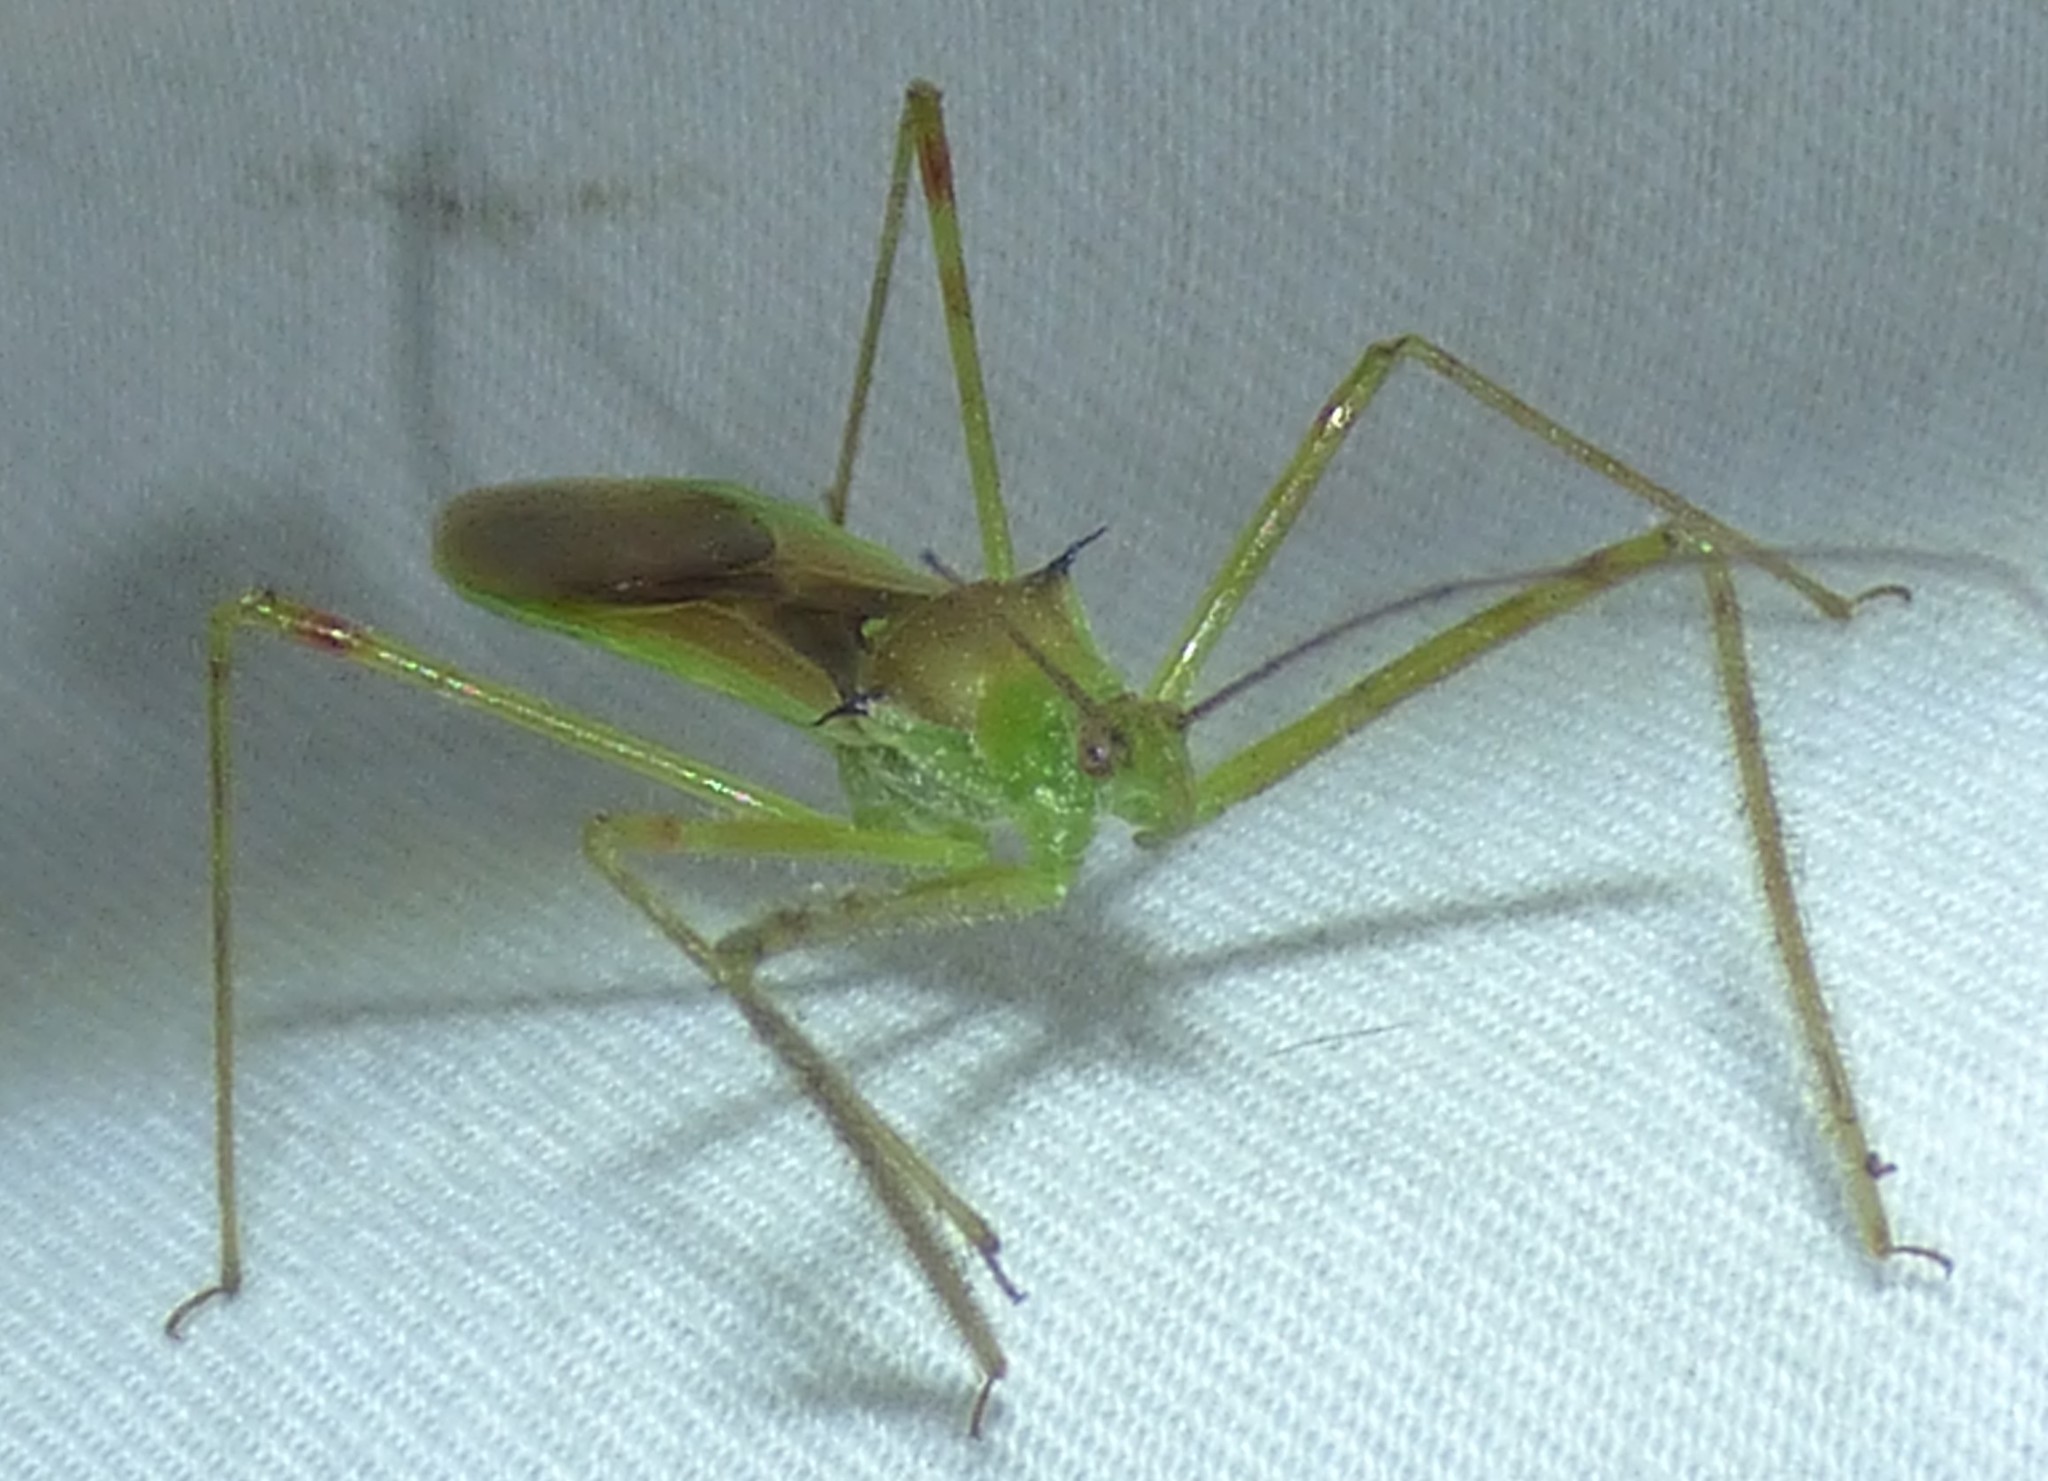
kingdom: Animalia
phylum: Arthropoda
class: Insecta
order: Hemiptera
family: Reduviidae
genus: Zelus
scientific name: Zelus luridus
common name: Pale green assassin bug
